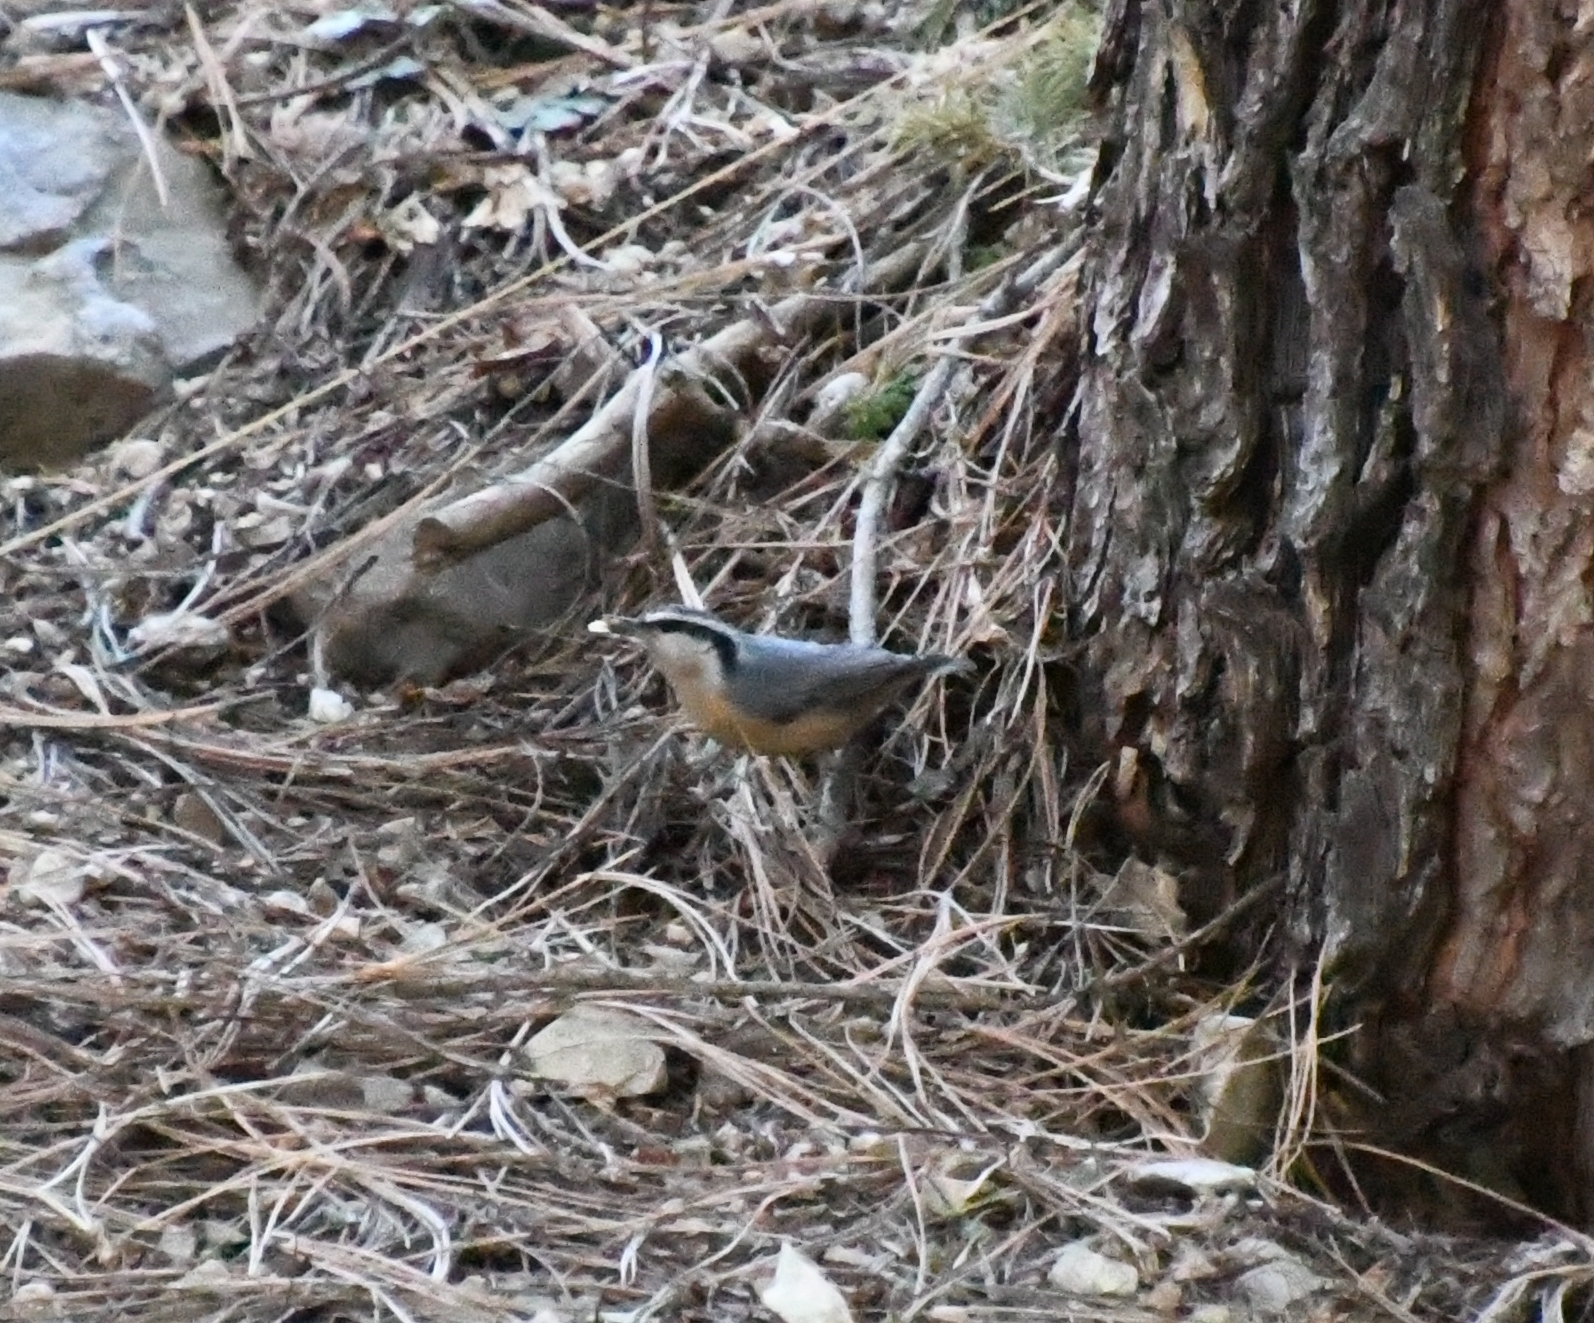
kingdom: Animalia
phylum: Chordata
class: Aves
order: Passeriformes
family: Sittidae
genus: Sitta
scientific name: Sitta canadensis
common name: Red-breasted nuthatch
